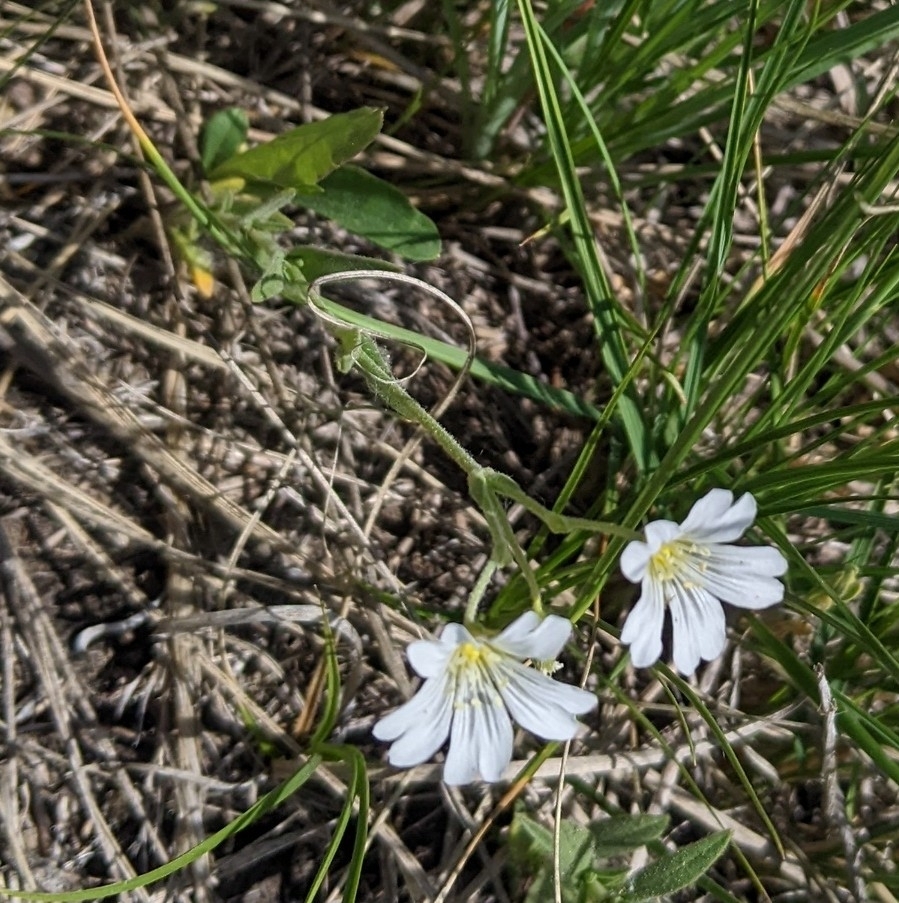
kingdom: Plantae
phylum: Tracheophyta
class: Magnoliopsida
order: Caryophyllales
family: Caryophyllaceae
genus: Cerastium
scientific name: Cerastium arvense
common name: Field mouse-ear
